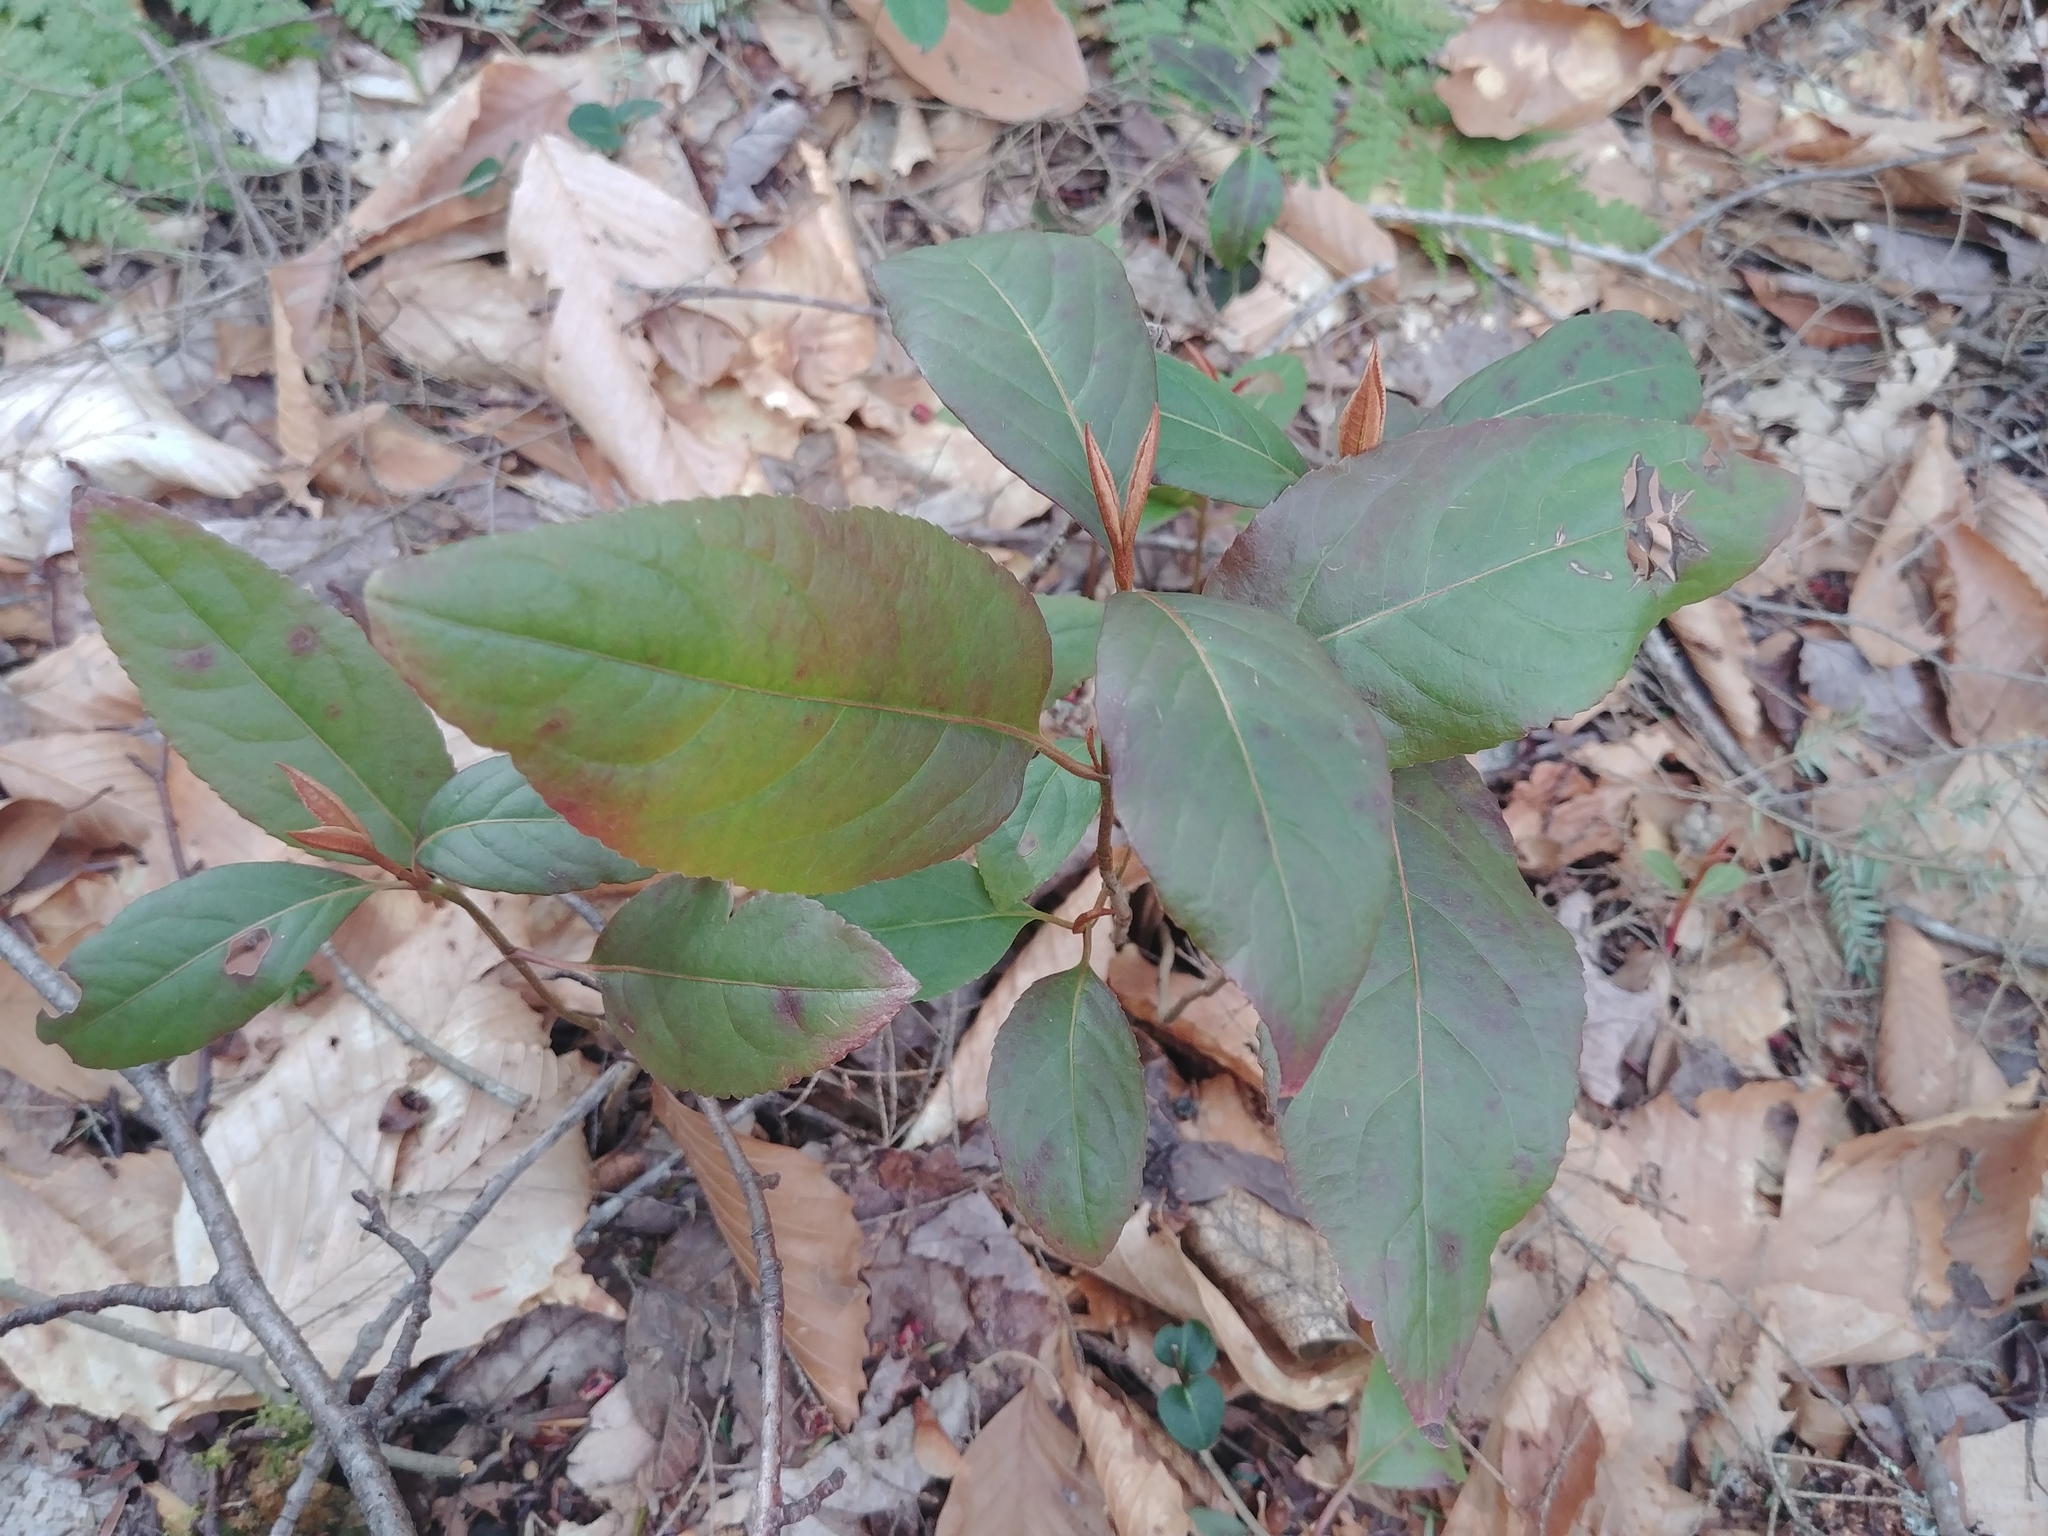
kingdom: Plantae
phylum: Tracheophyta
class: Magnoliopsida
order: Dipsacales
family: Viburnaceae
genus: Viburnum
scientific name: Viburnum cassinoides
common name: Swamp haw
